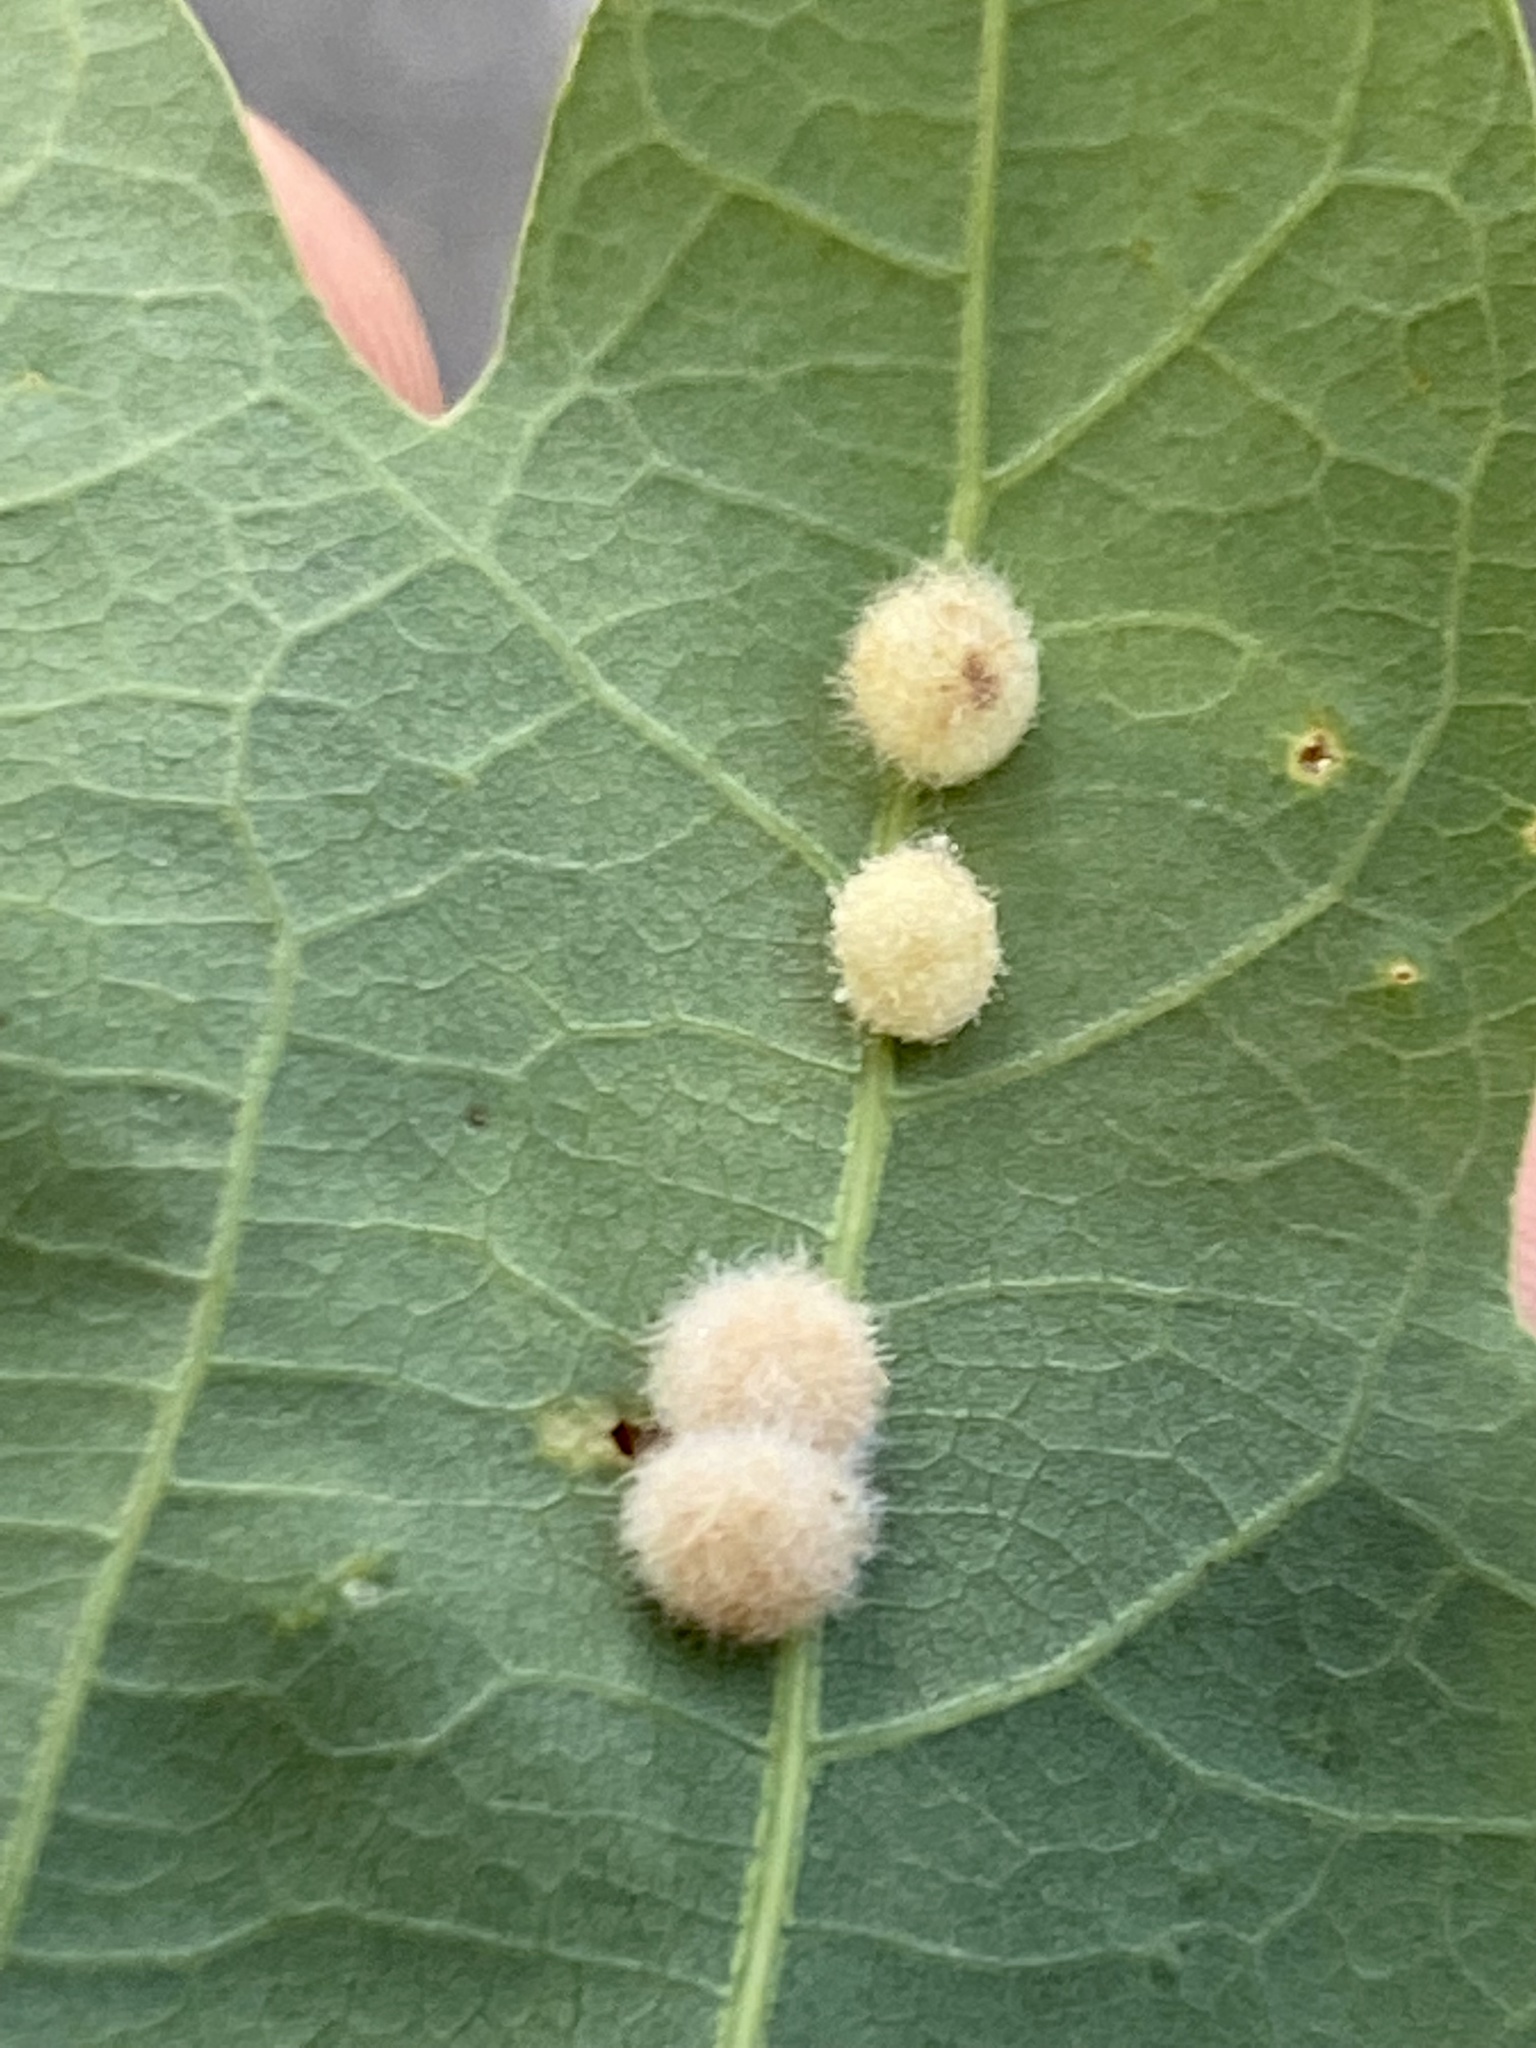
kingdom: Animalia
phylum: Arthropoda
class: Insecta
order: Hymenoptera
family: Cynipidae
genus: Philonix
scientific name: Philonix fulvicollis
